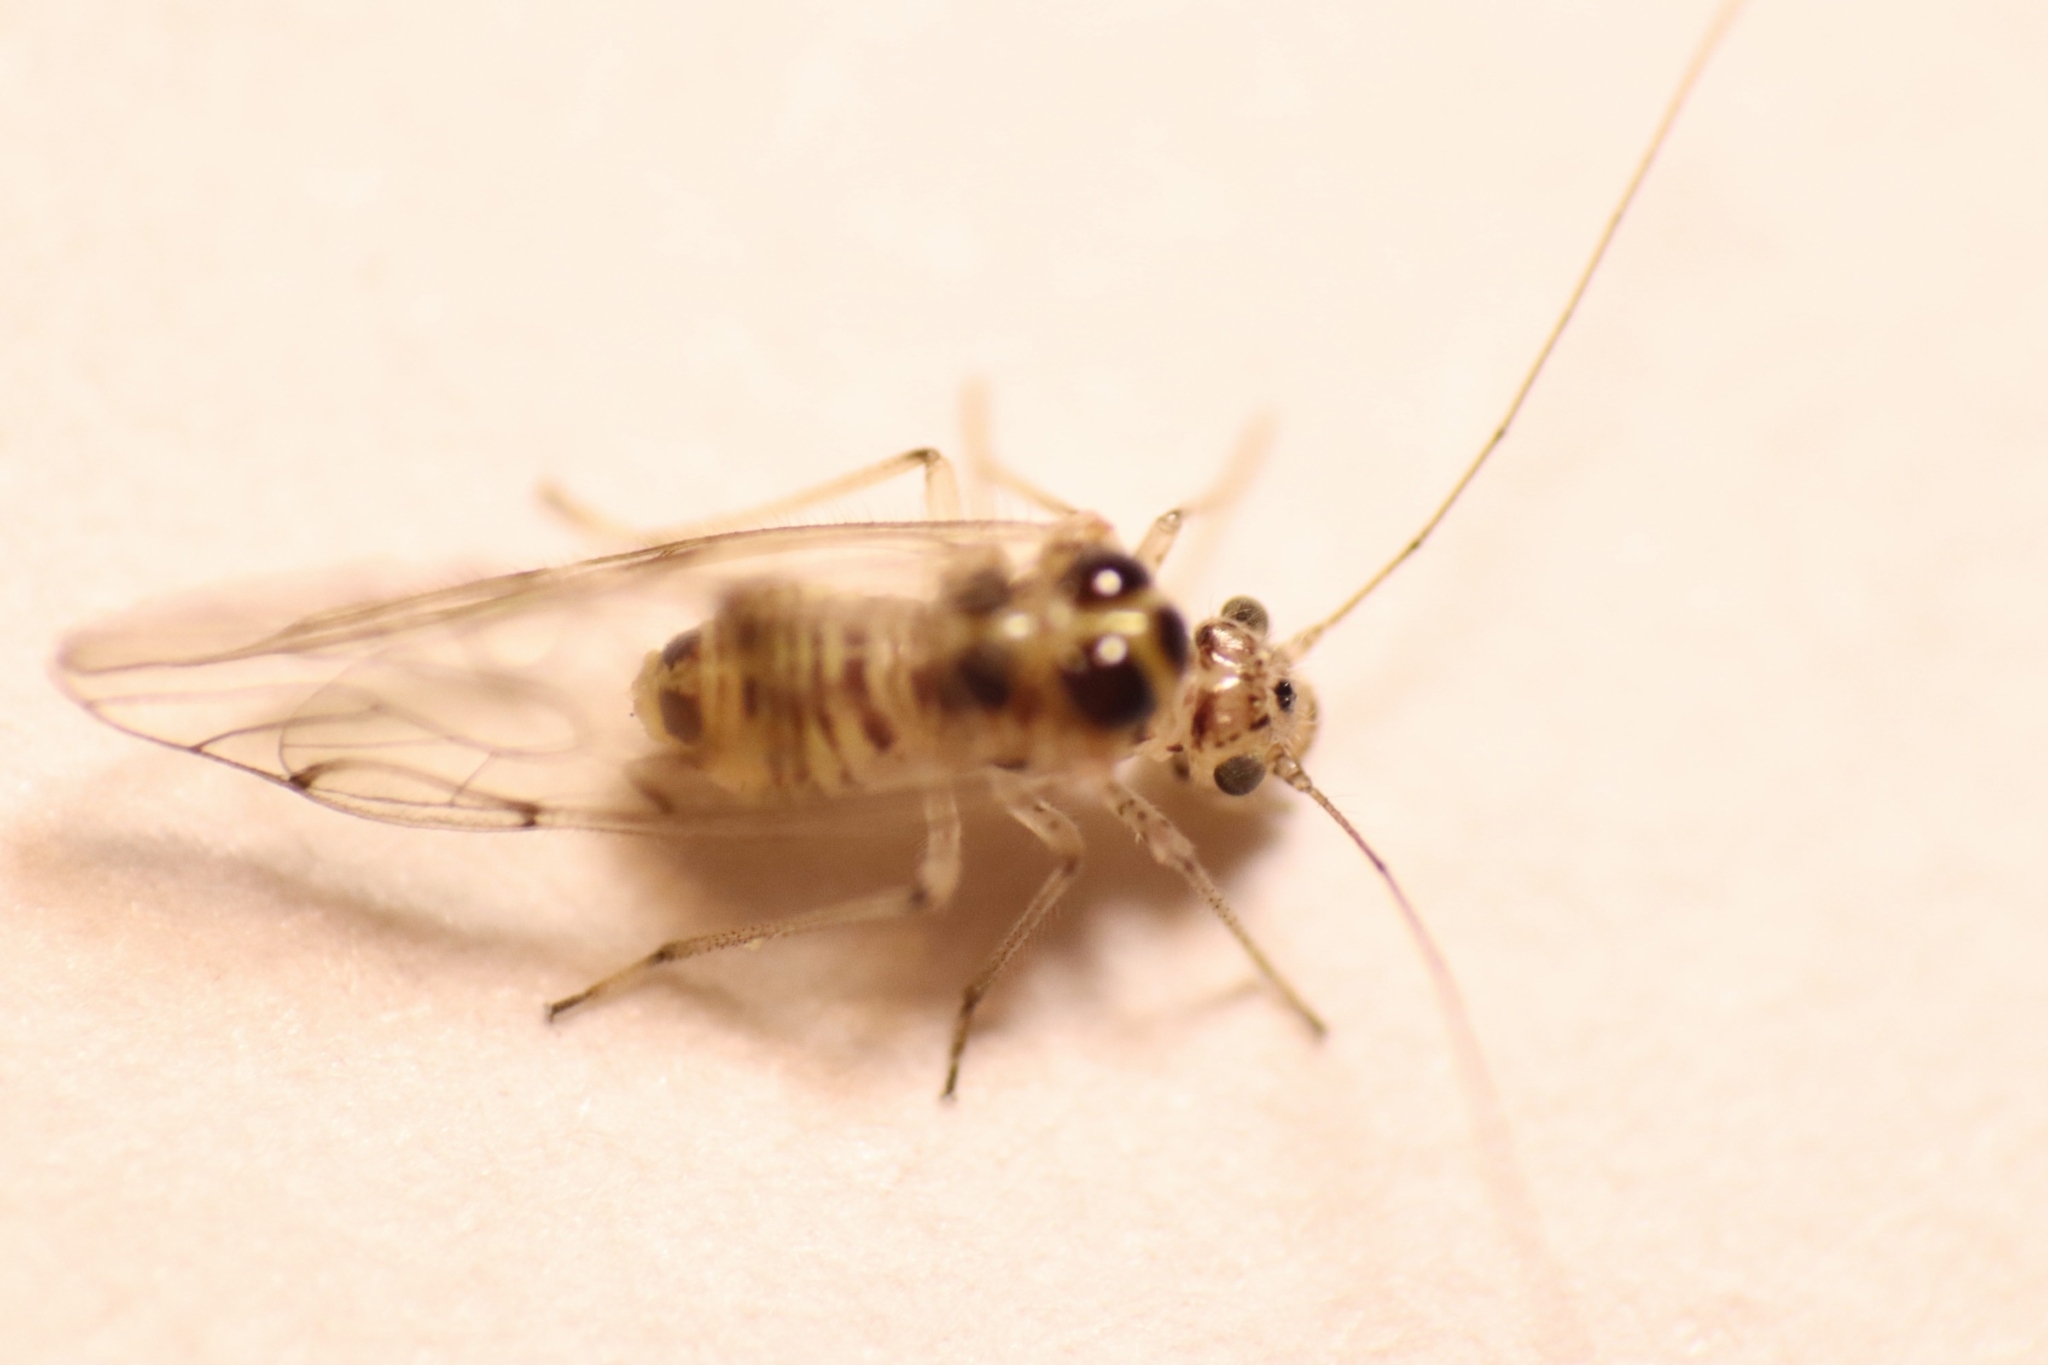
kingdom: Animalia
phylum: Arthropoda
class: Insecta
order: Psocodea
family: Dasydemellidae
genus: Teliapsocus
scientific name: Teliapsocus conterminus
